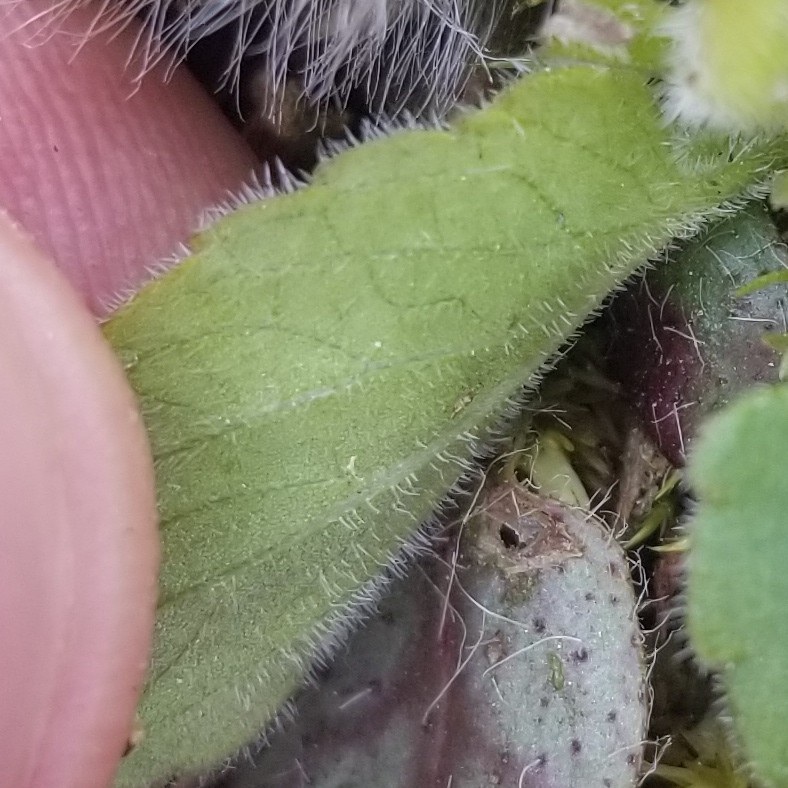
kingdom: Plantae
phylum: Tracheophyta
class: Magnoliopsida
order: Malpighiales
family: Violaceae
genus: Viola
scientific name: Viola fimbriatula
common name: Sand violet
